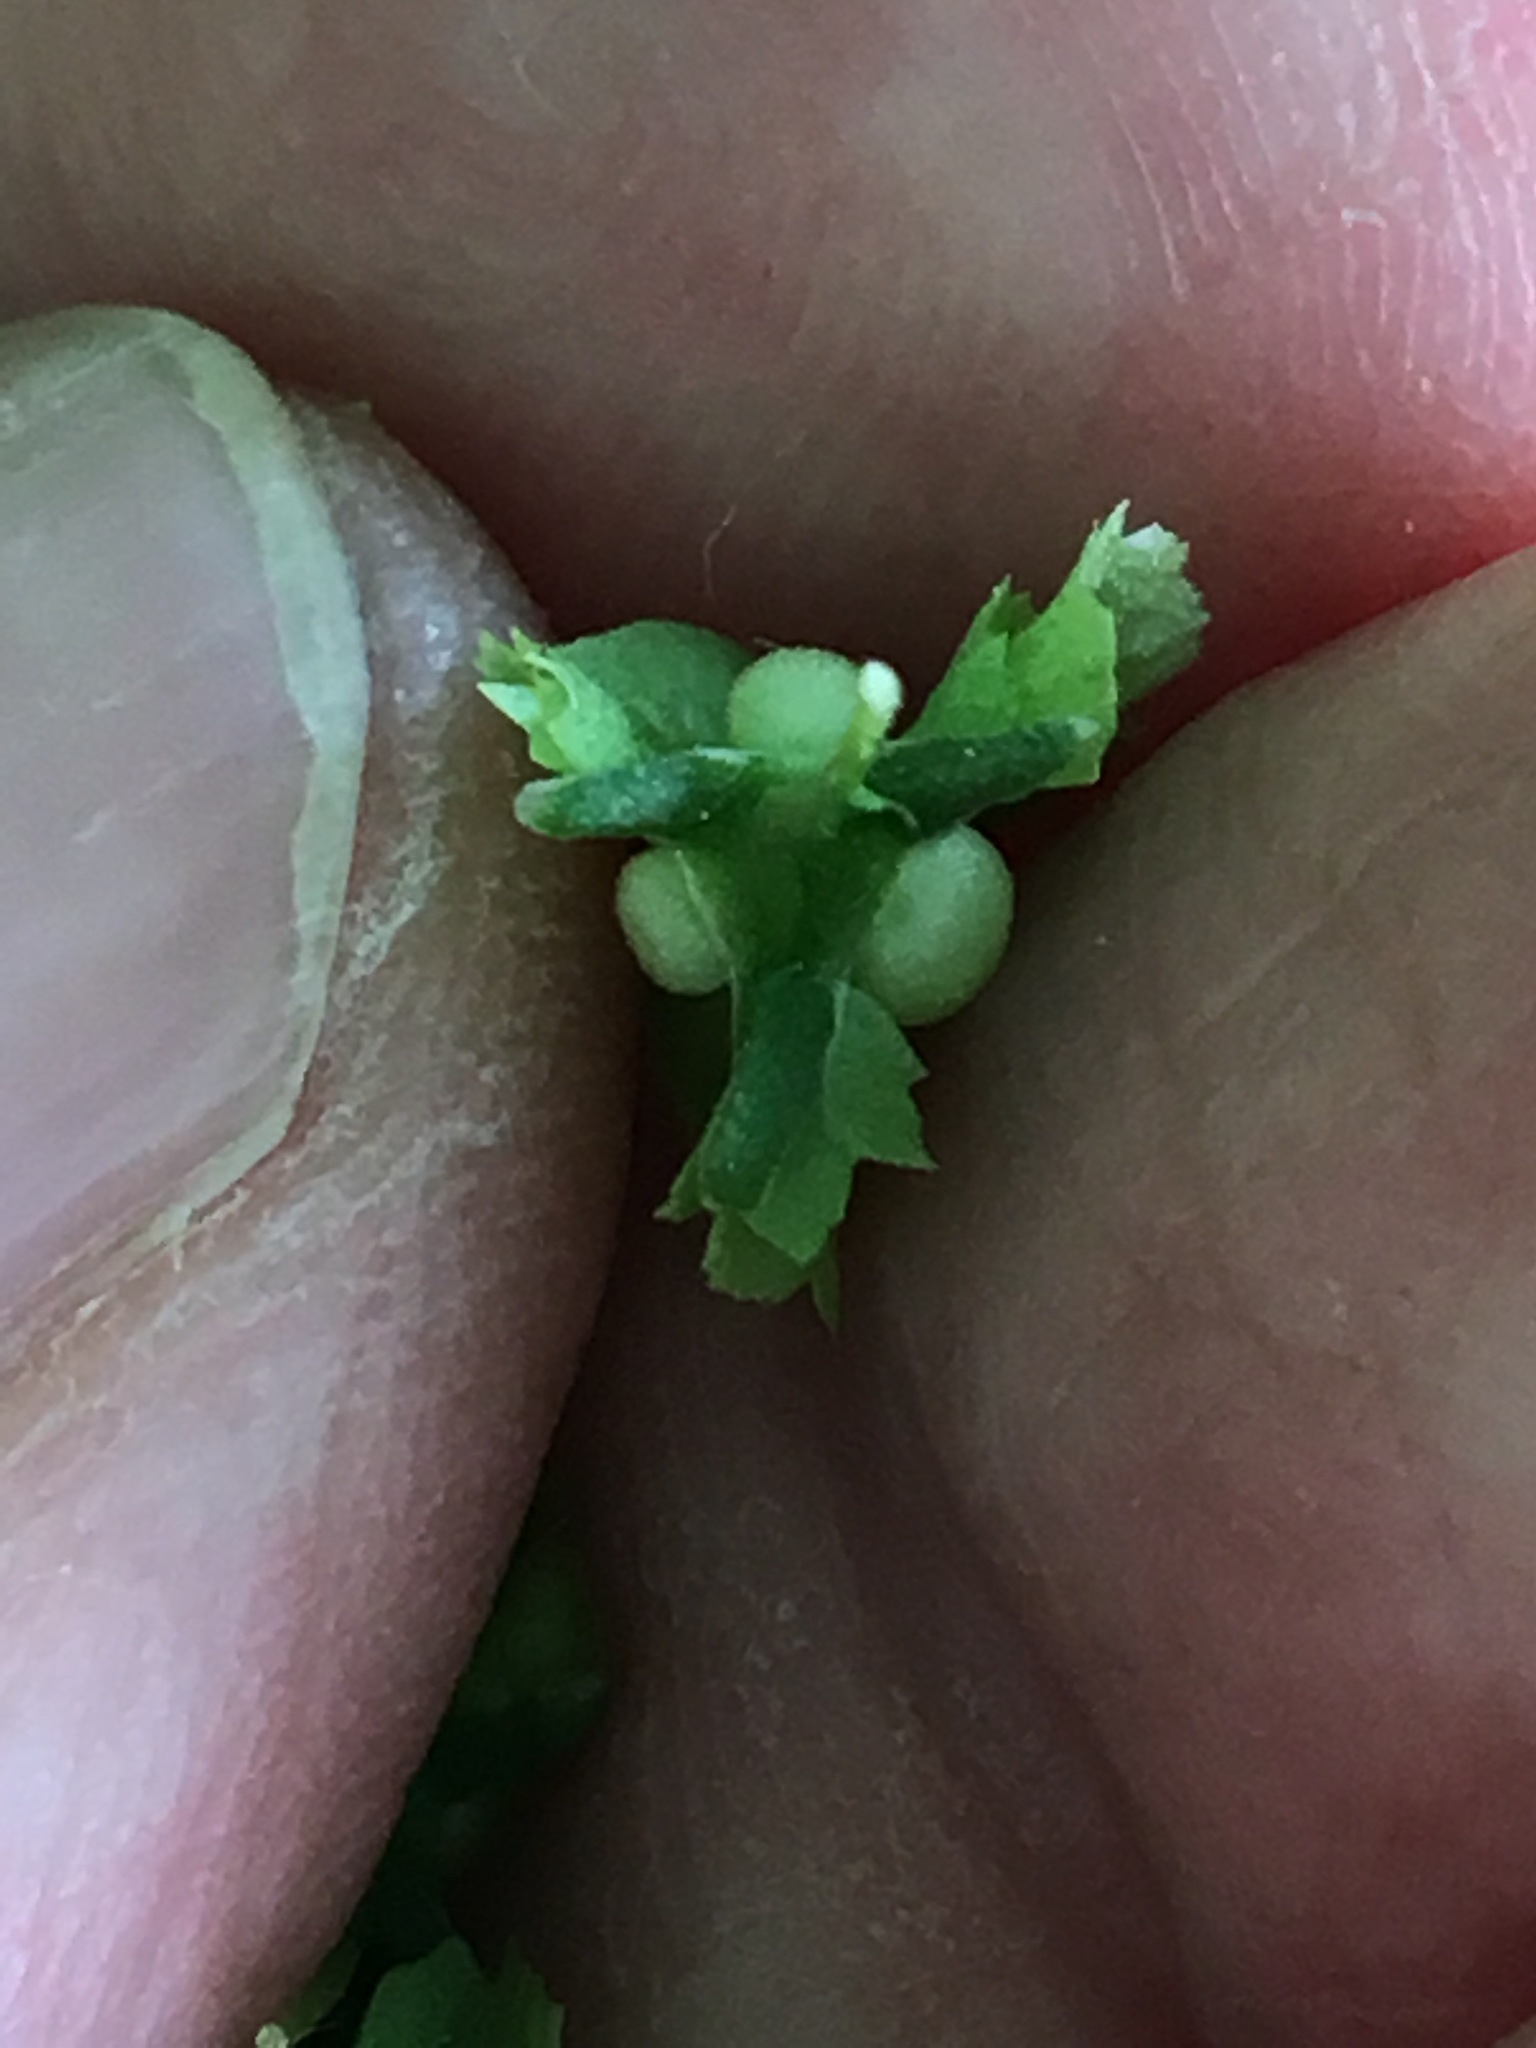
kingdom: Plantae
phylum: Tracheophyta
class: Magnoliopsida
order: Caryophyllales
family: Polygonaceae
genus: Rumex
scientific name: Rumex cristatus
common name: Greek dock
